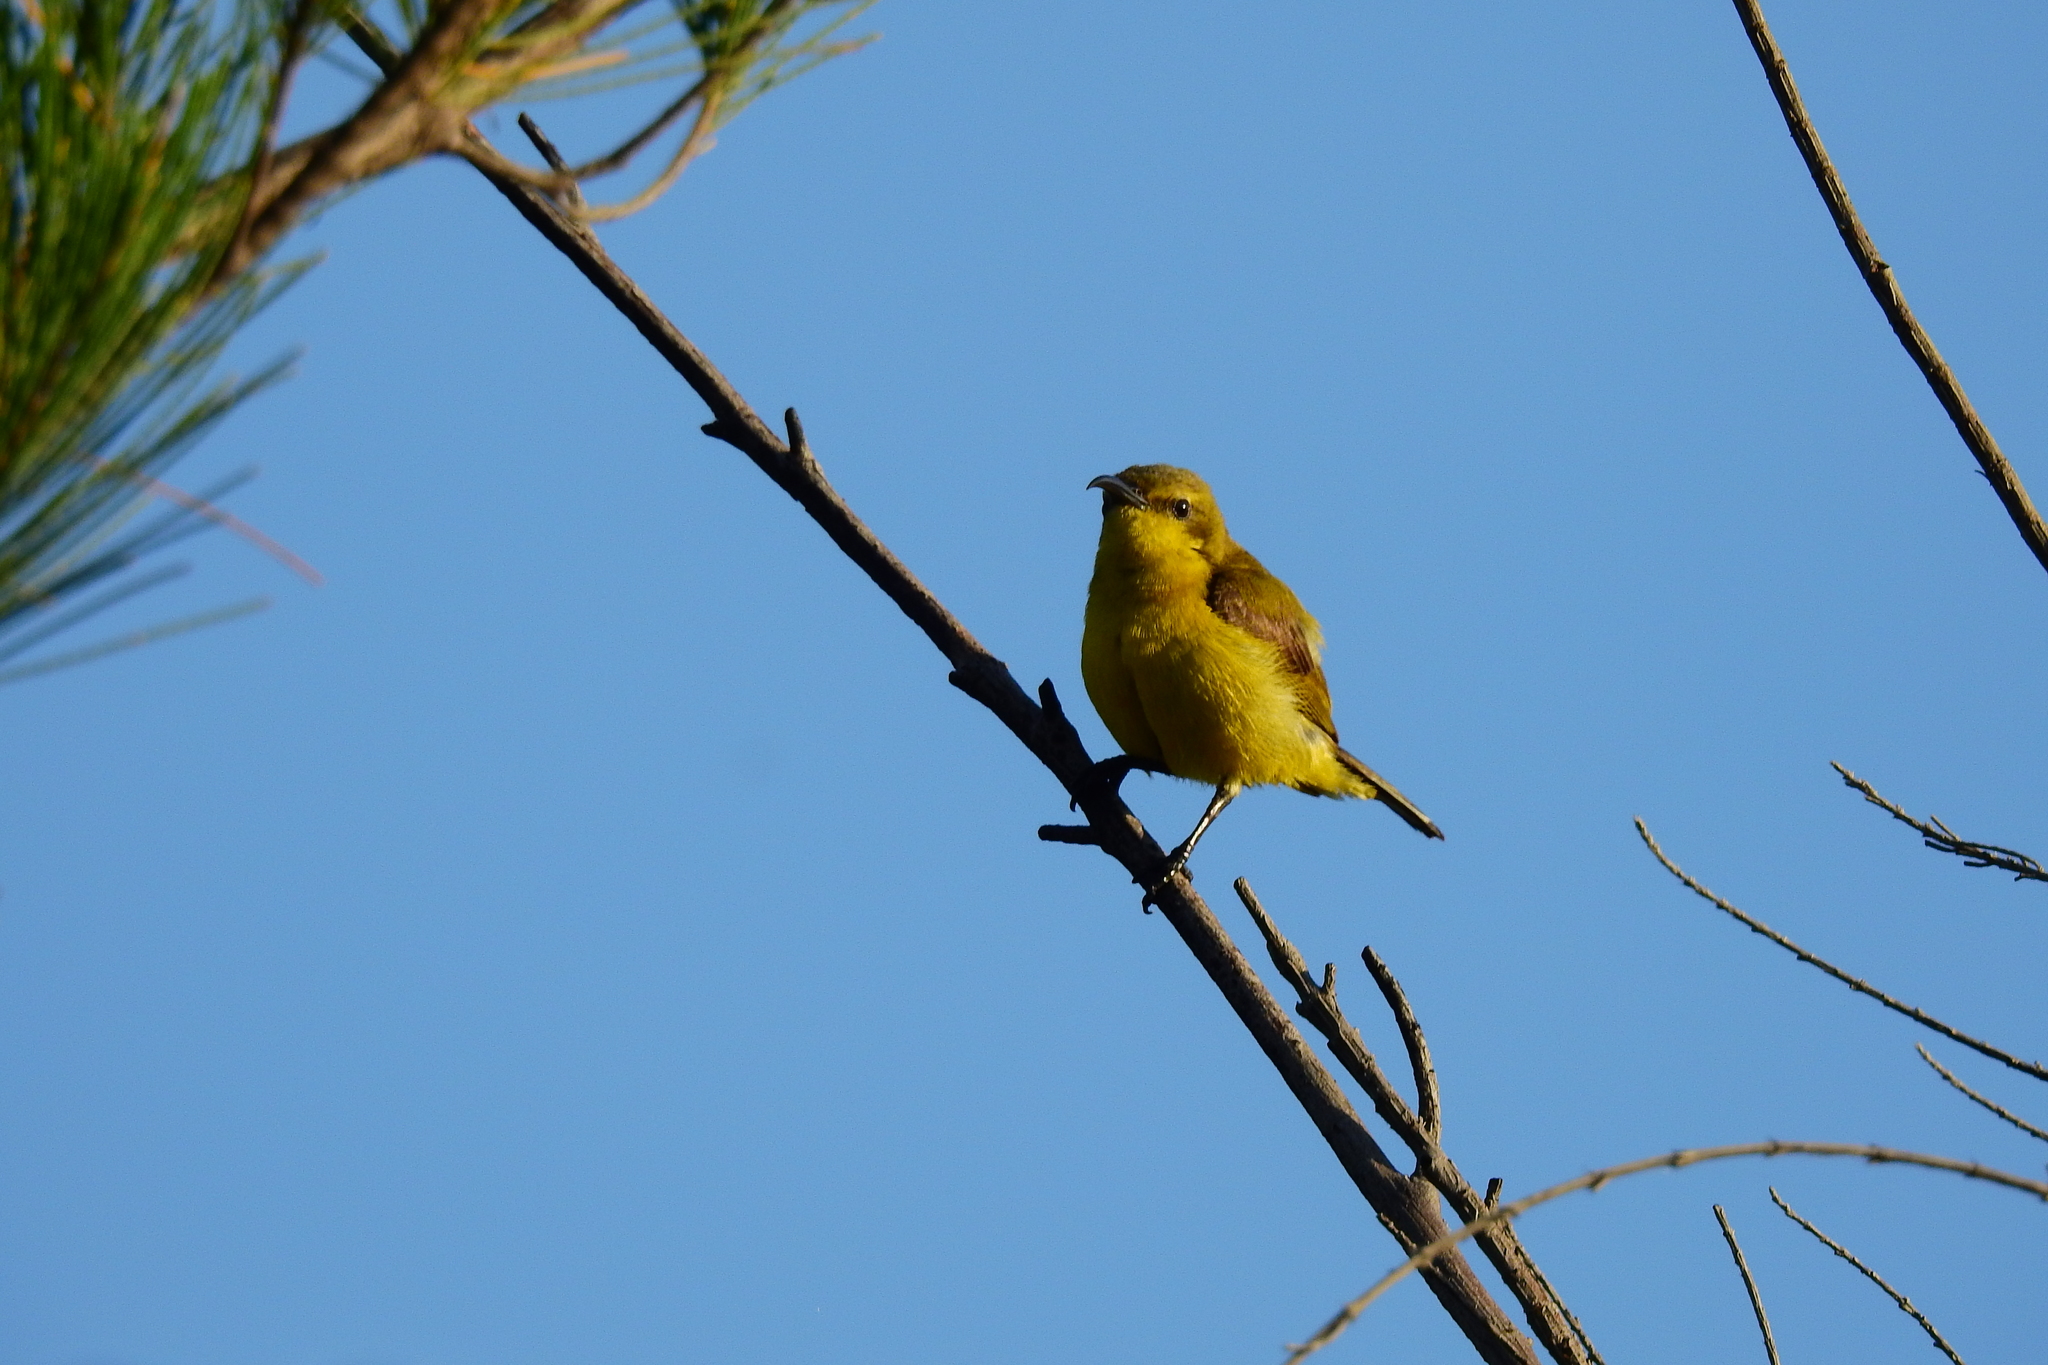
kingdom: Animalia
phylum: Chordata
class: Aves
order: Passeriformes
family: Nectariniidae
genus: Cinnyris
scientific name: Cinnyris
